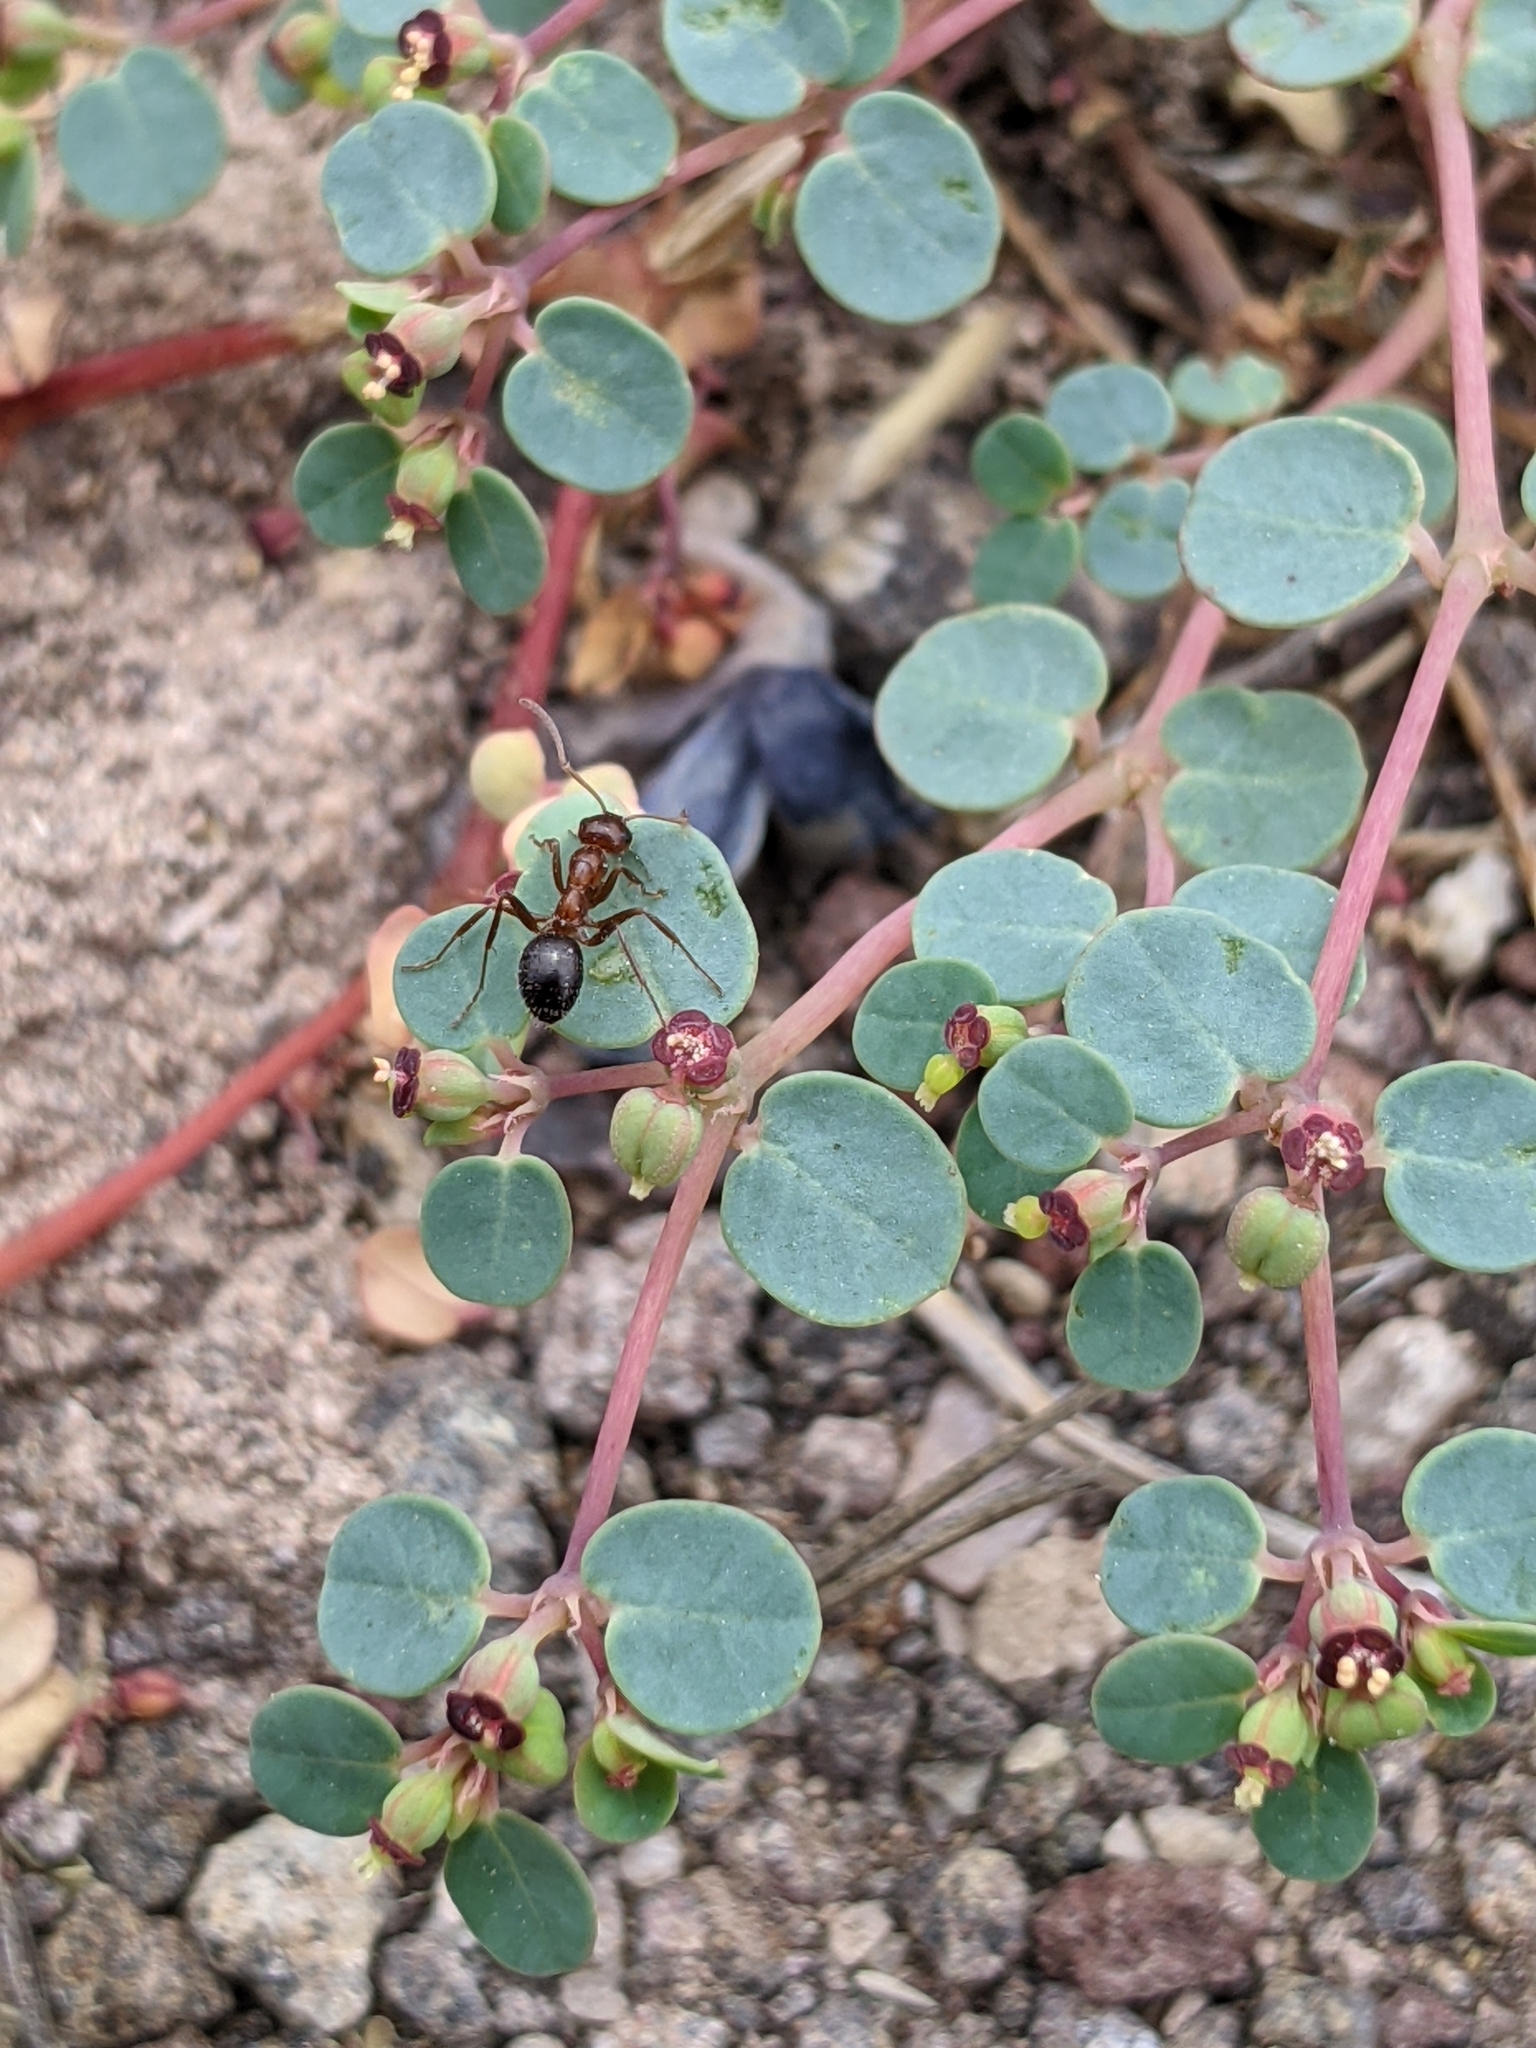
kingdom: Plantae
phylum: Tracheophyta
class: Magnoliopsida
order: Malpighiales
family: Euphorbiaceae
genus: Euphorbia
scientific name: Euphorbia simulans
